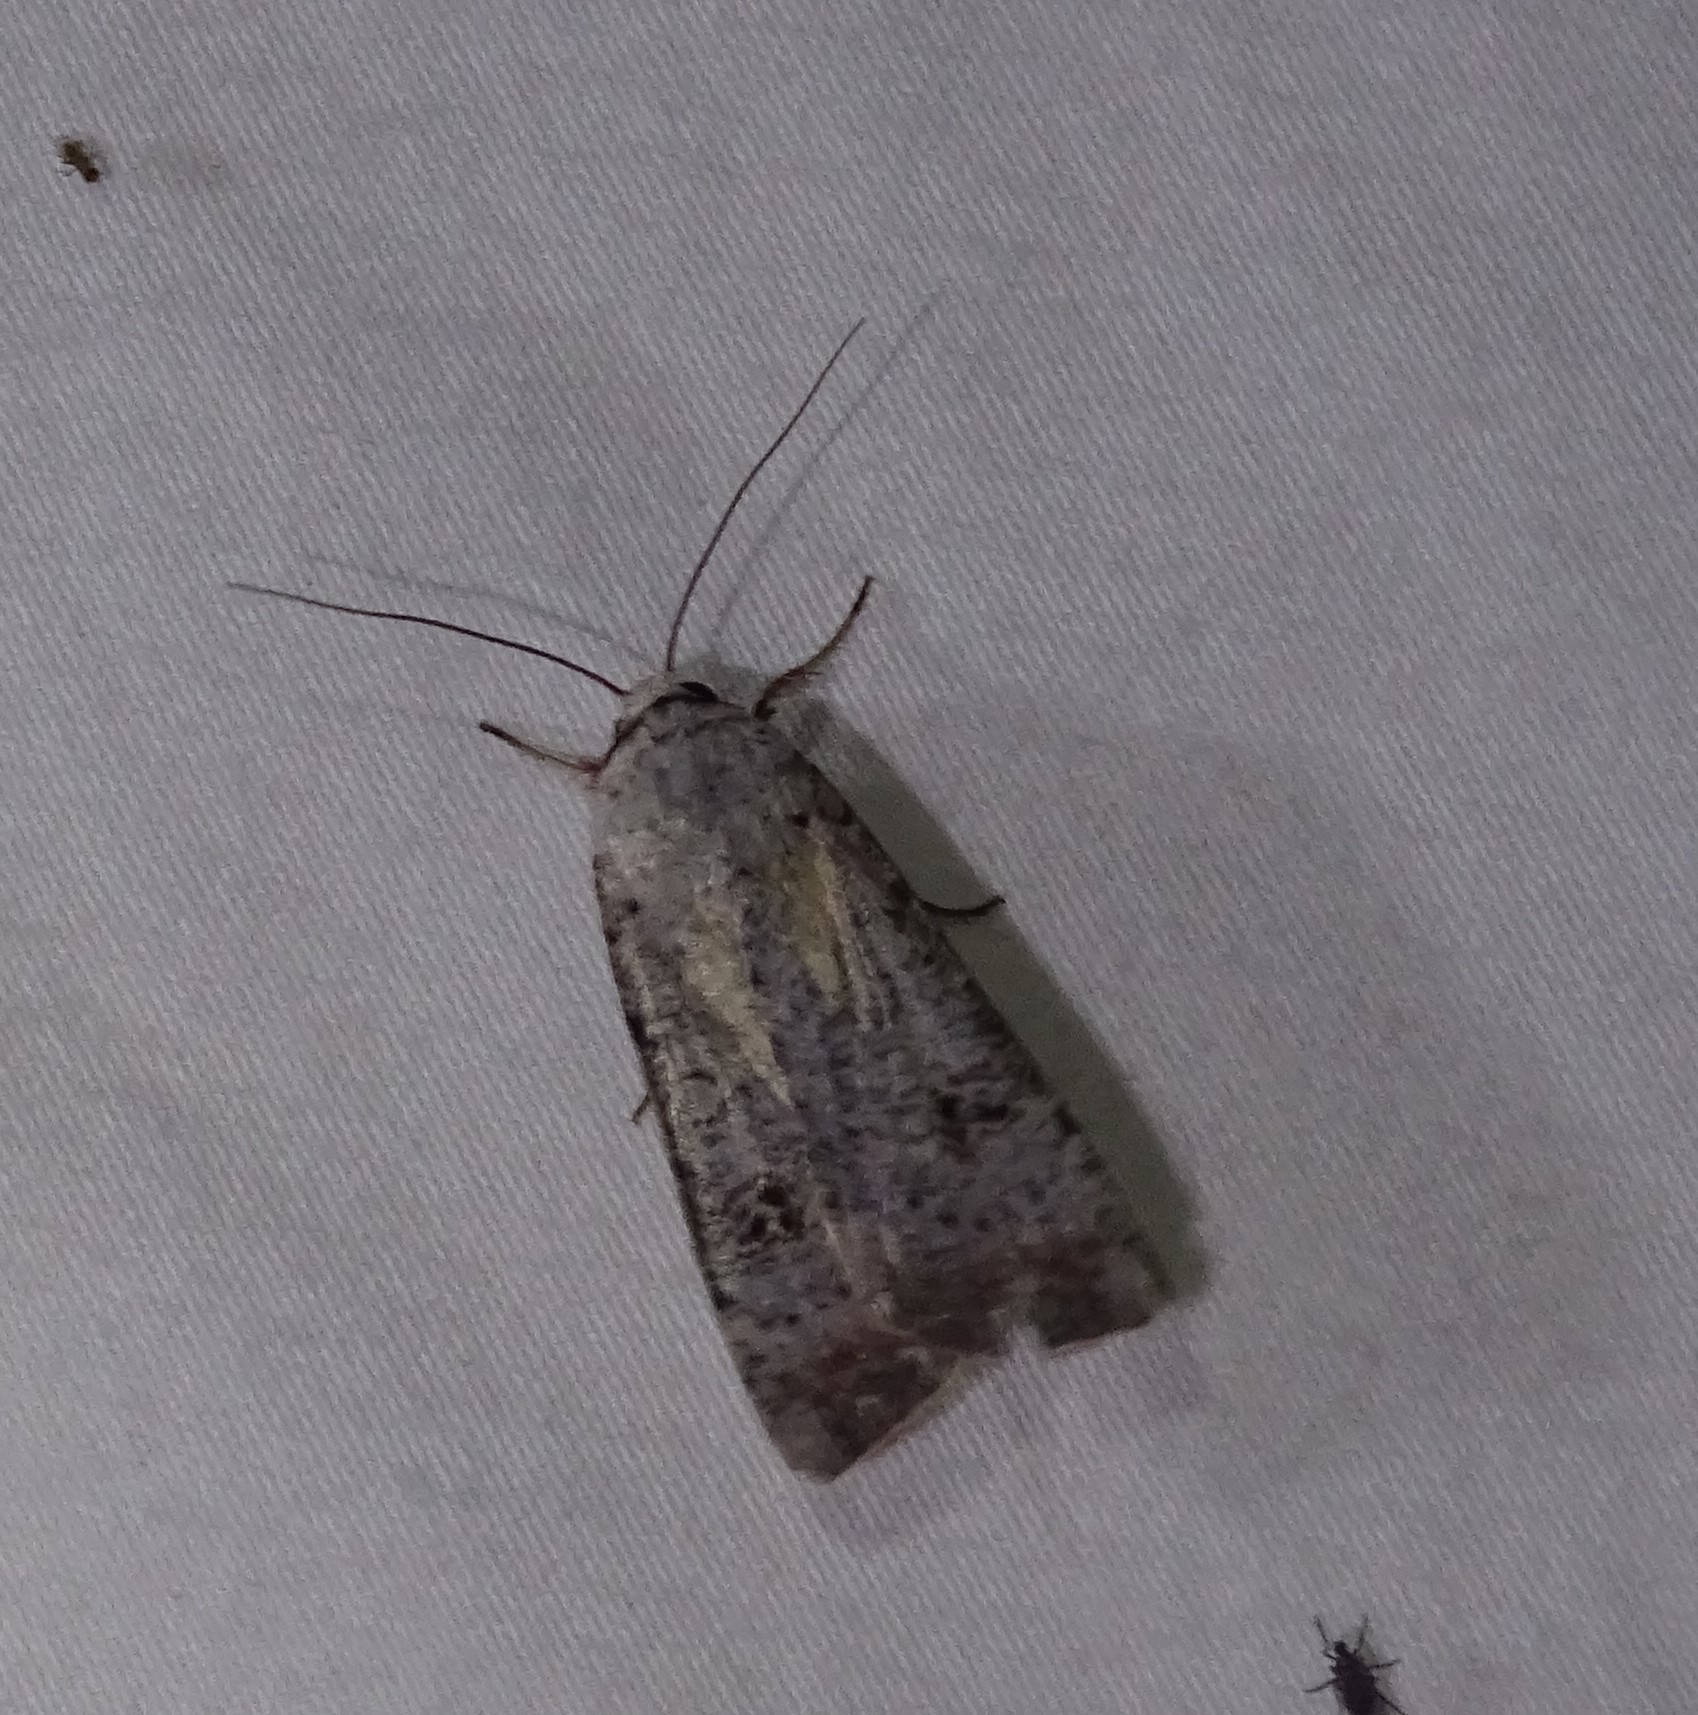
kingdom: Animalia
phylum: Arthropoda
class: Insecta
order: Lepidoptera
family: Noctuidae
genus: Anicla
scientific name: Anicla infecta
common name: Green cutworm
